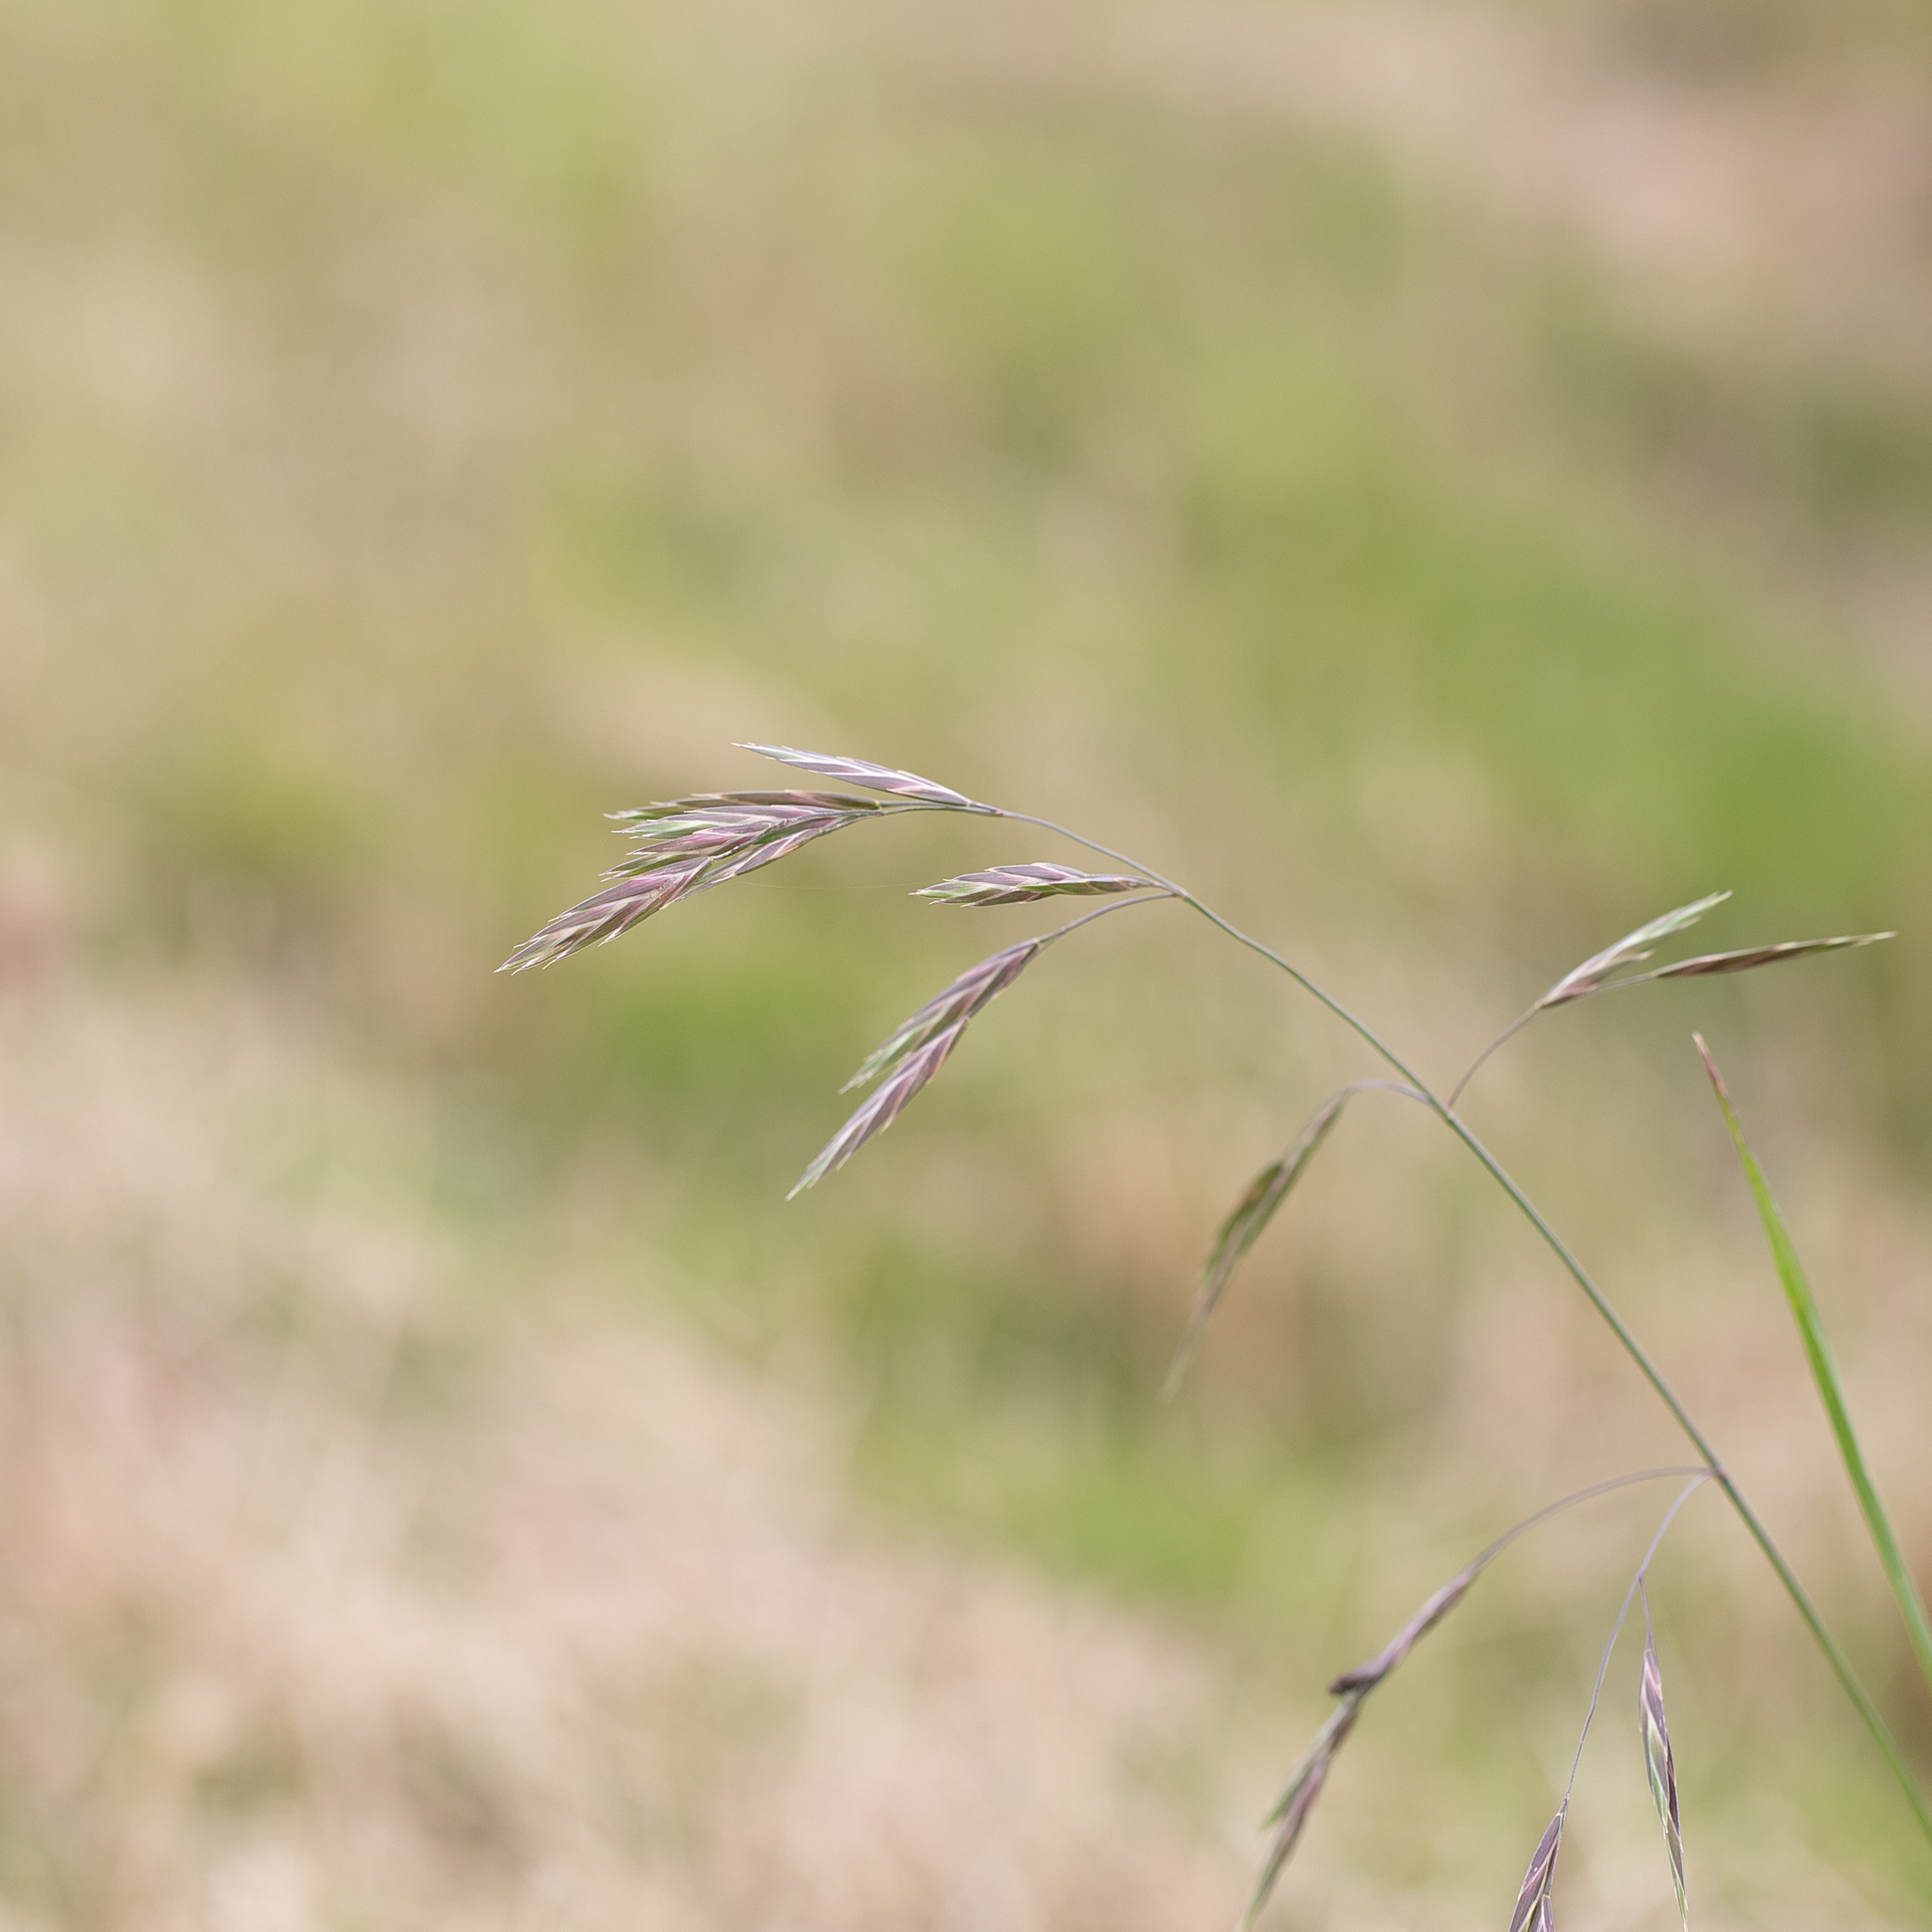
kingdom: Plantae
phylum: Tracheophyta
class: Liliopsida
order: Poales
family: Poaceae
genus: Bromus
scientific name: Bromus catharticus
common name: Rescuegrass
